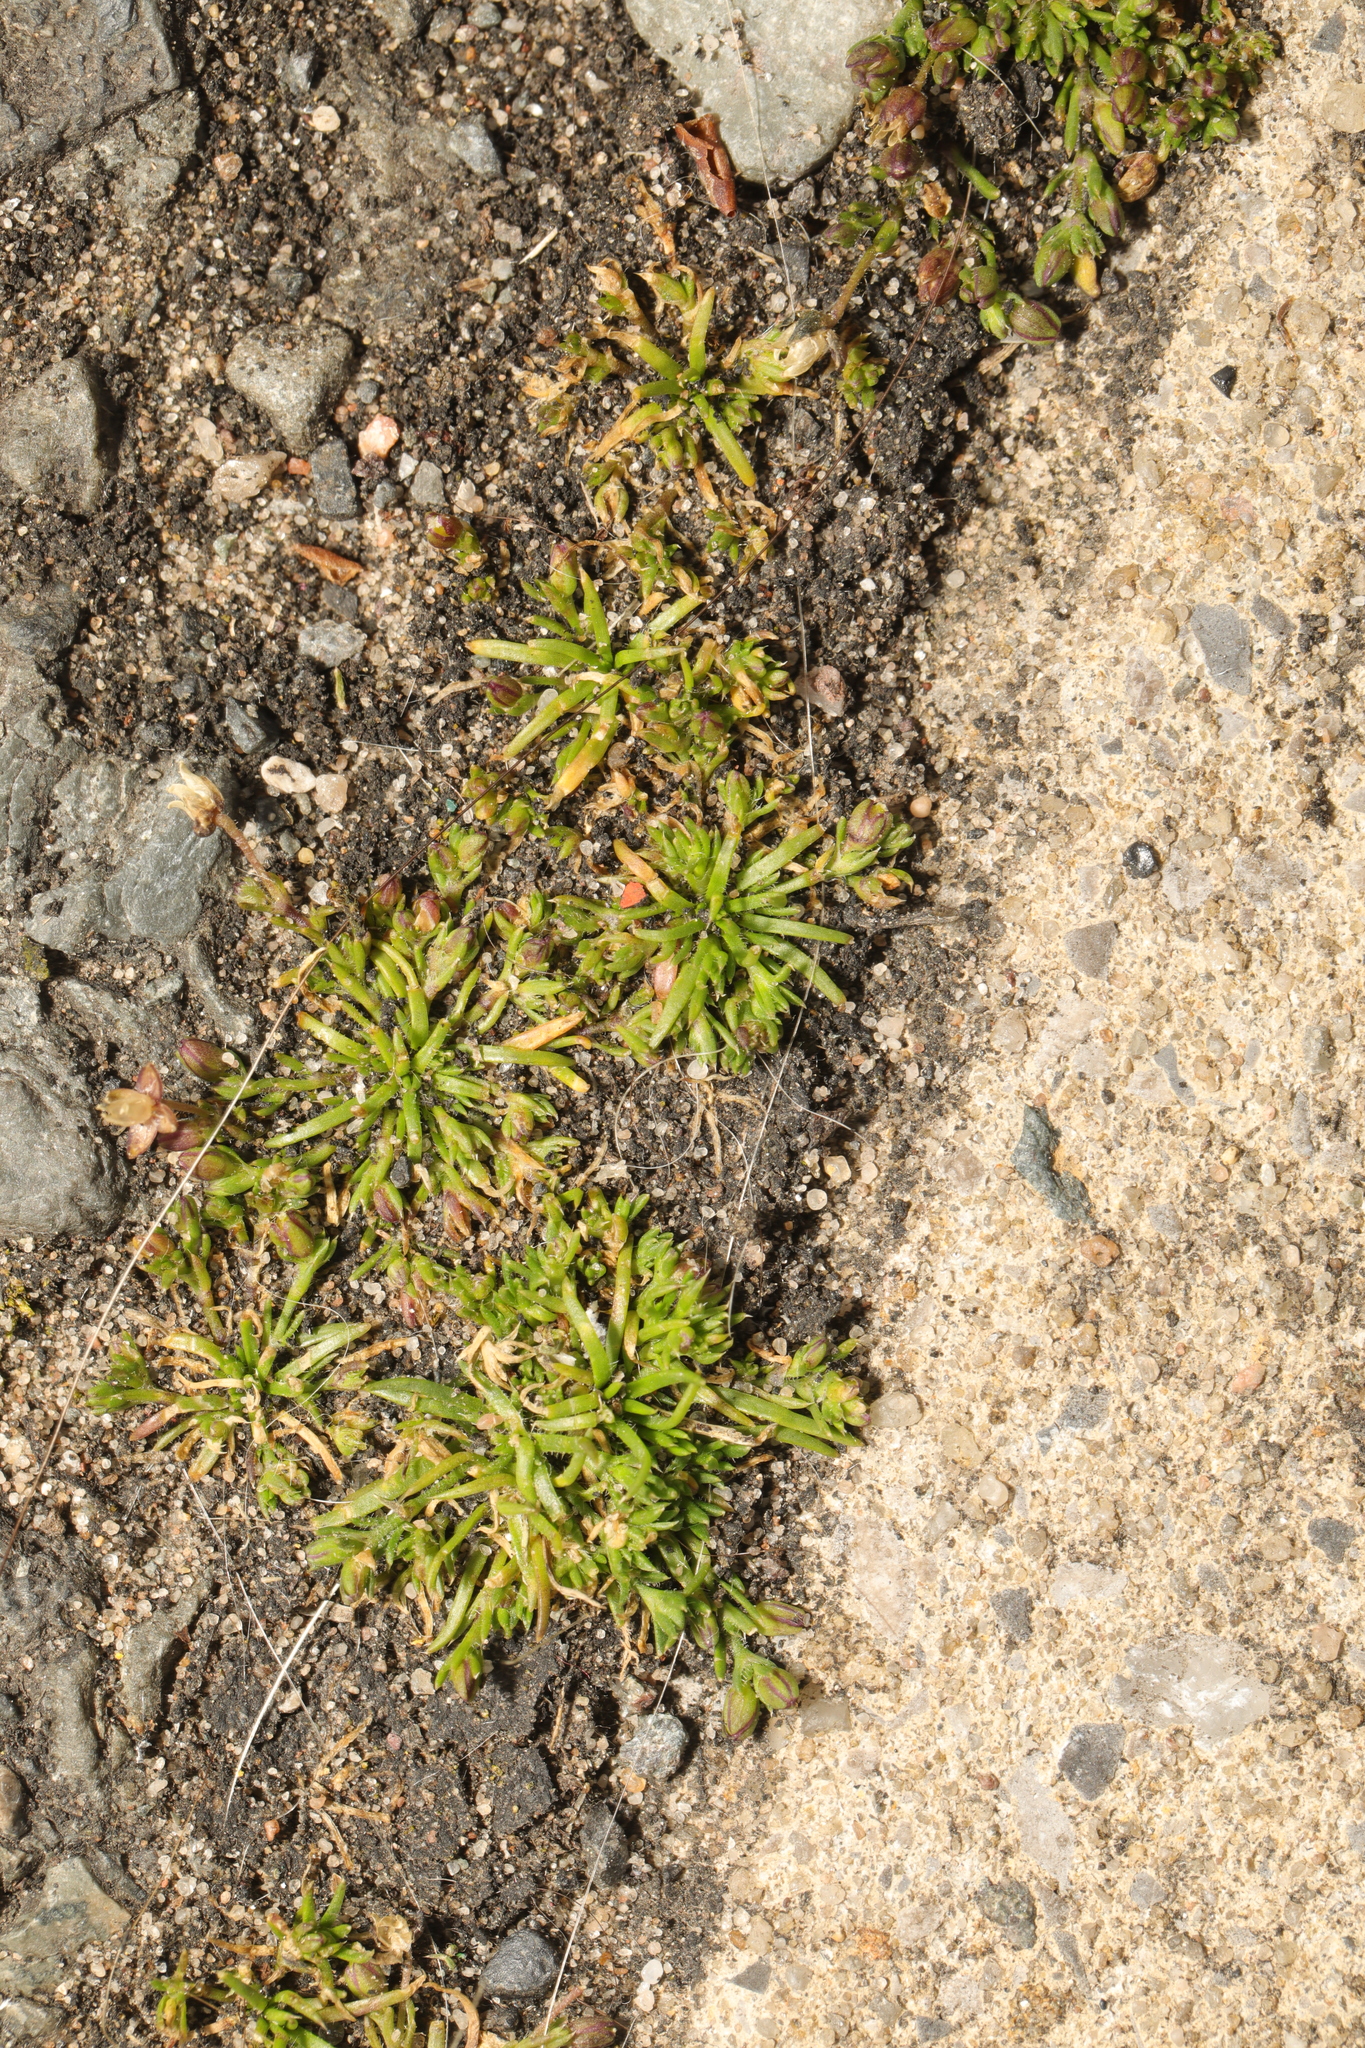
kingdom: Plantae
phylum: Tracheophyta
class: Magnoliopsida
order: Caryophyllales
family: Caryophyllaceae
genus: Sagina
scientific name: Sagina procumbens
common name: Procumbent pearlwort
